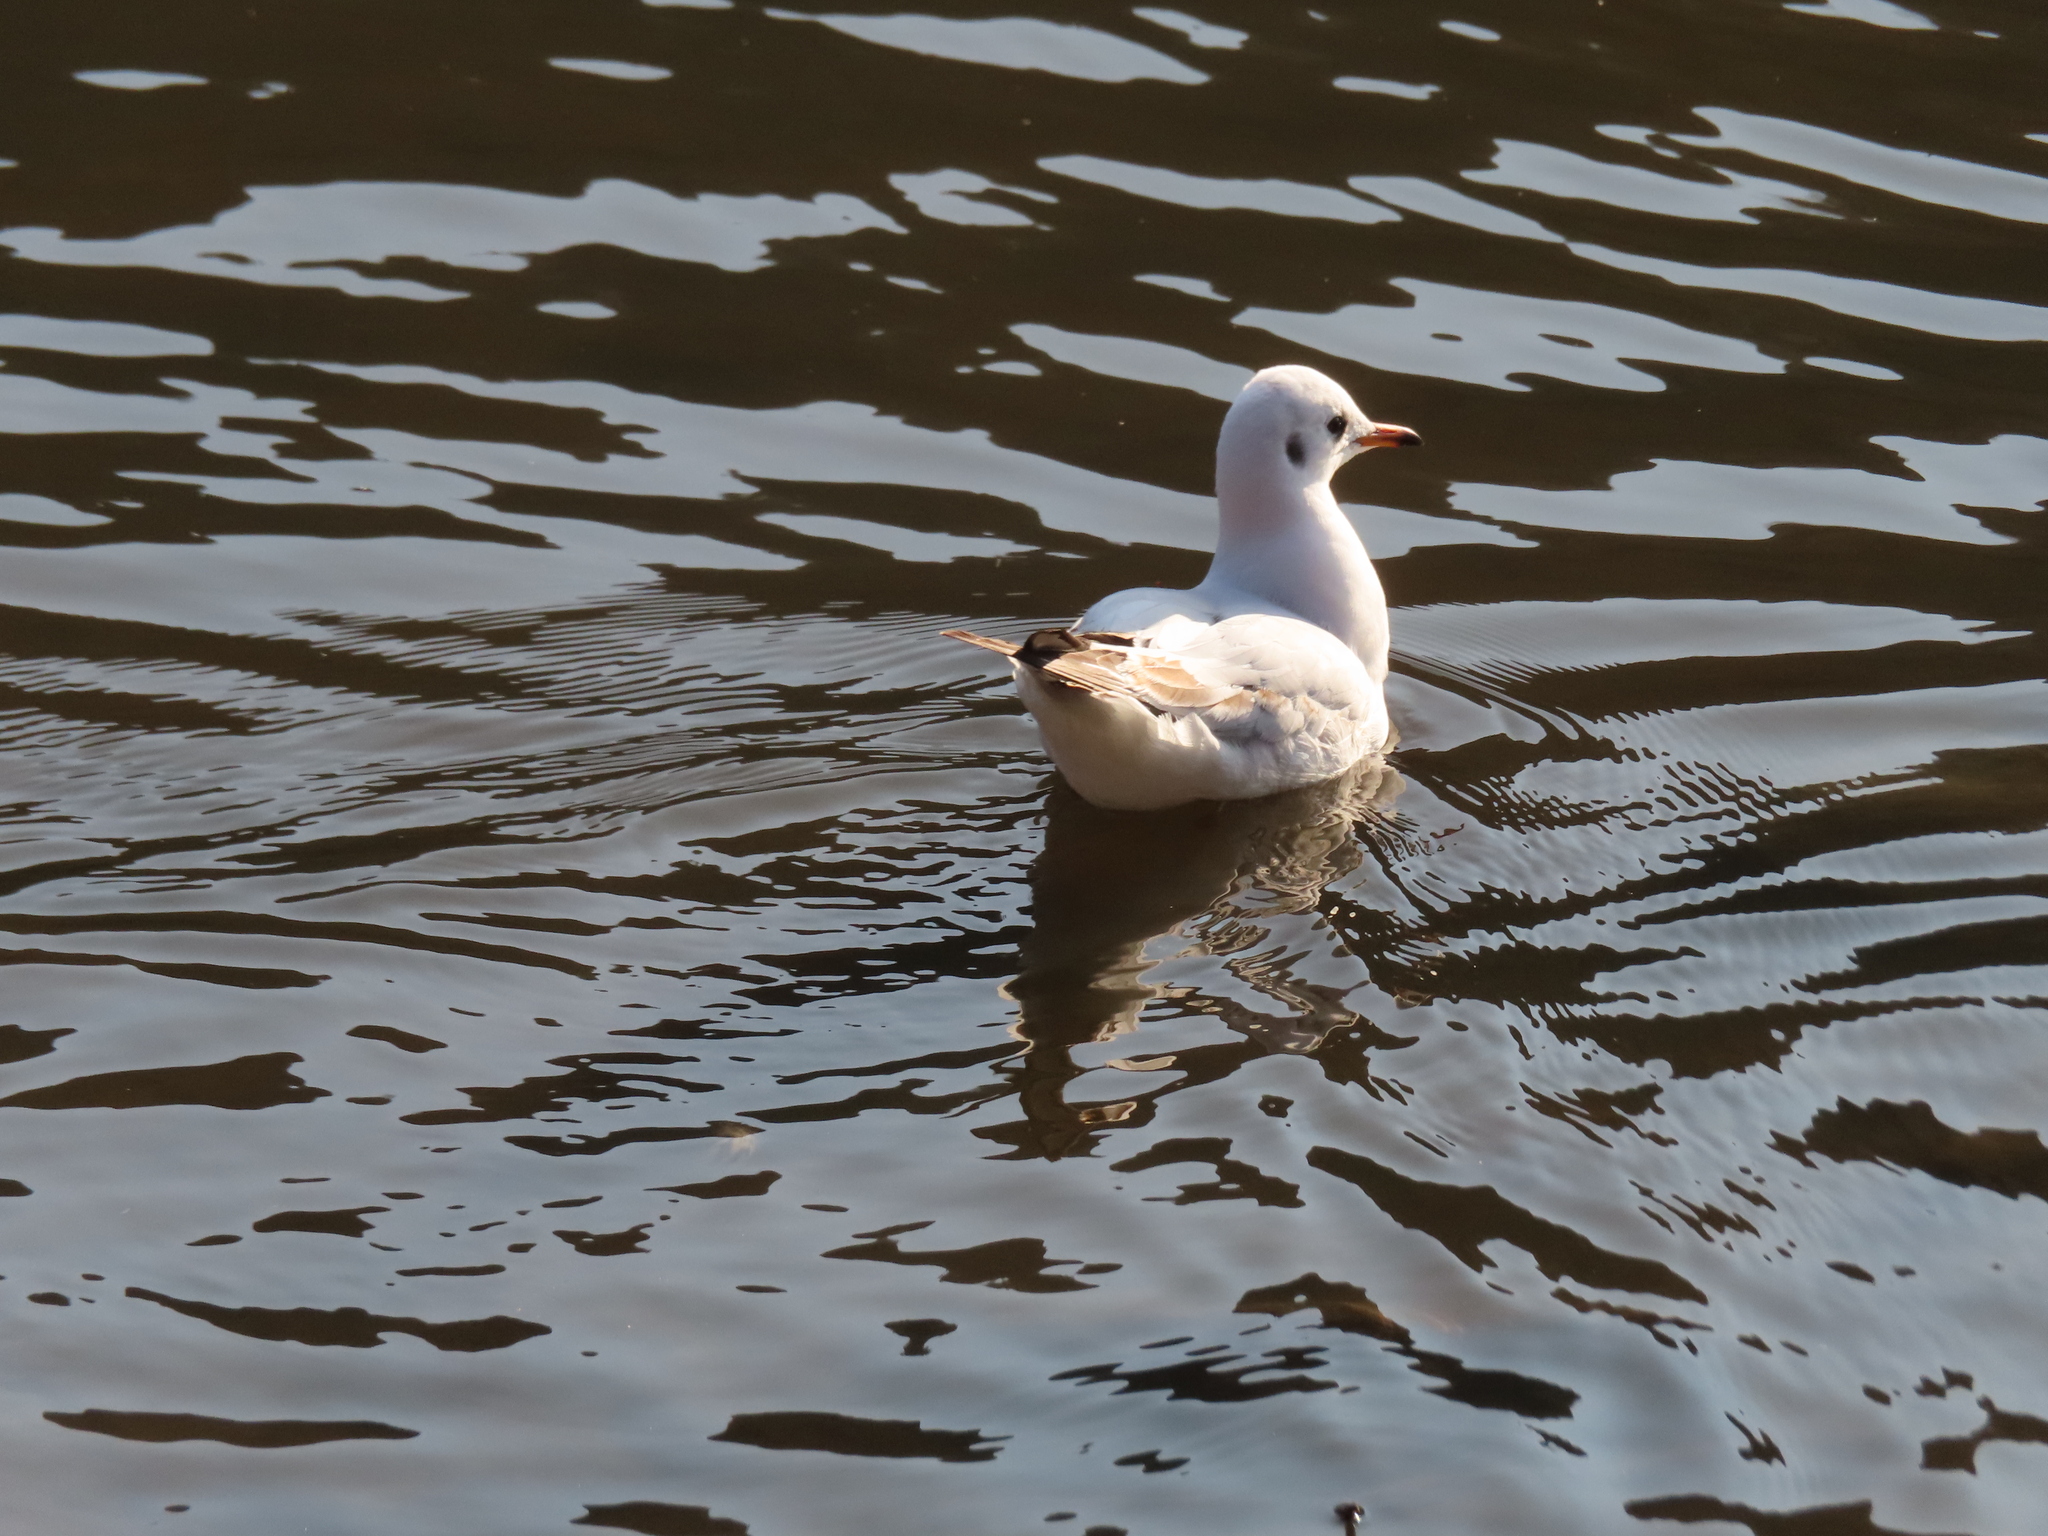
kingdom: Animalia
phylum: Chordata
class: Aves
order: Charadriiformes
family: Laridae
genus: Chroicocephalus
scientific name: Chroicocephalus ridibundus
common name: Black-headed gull
